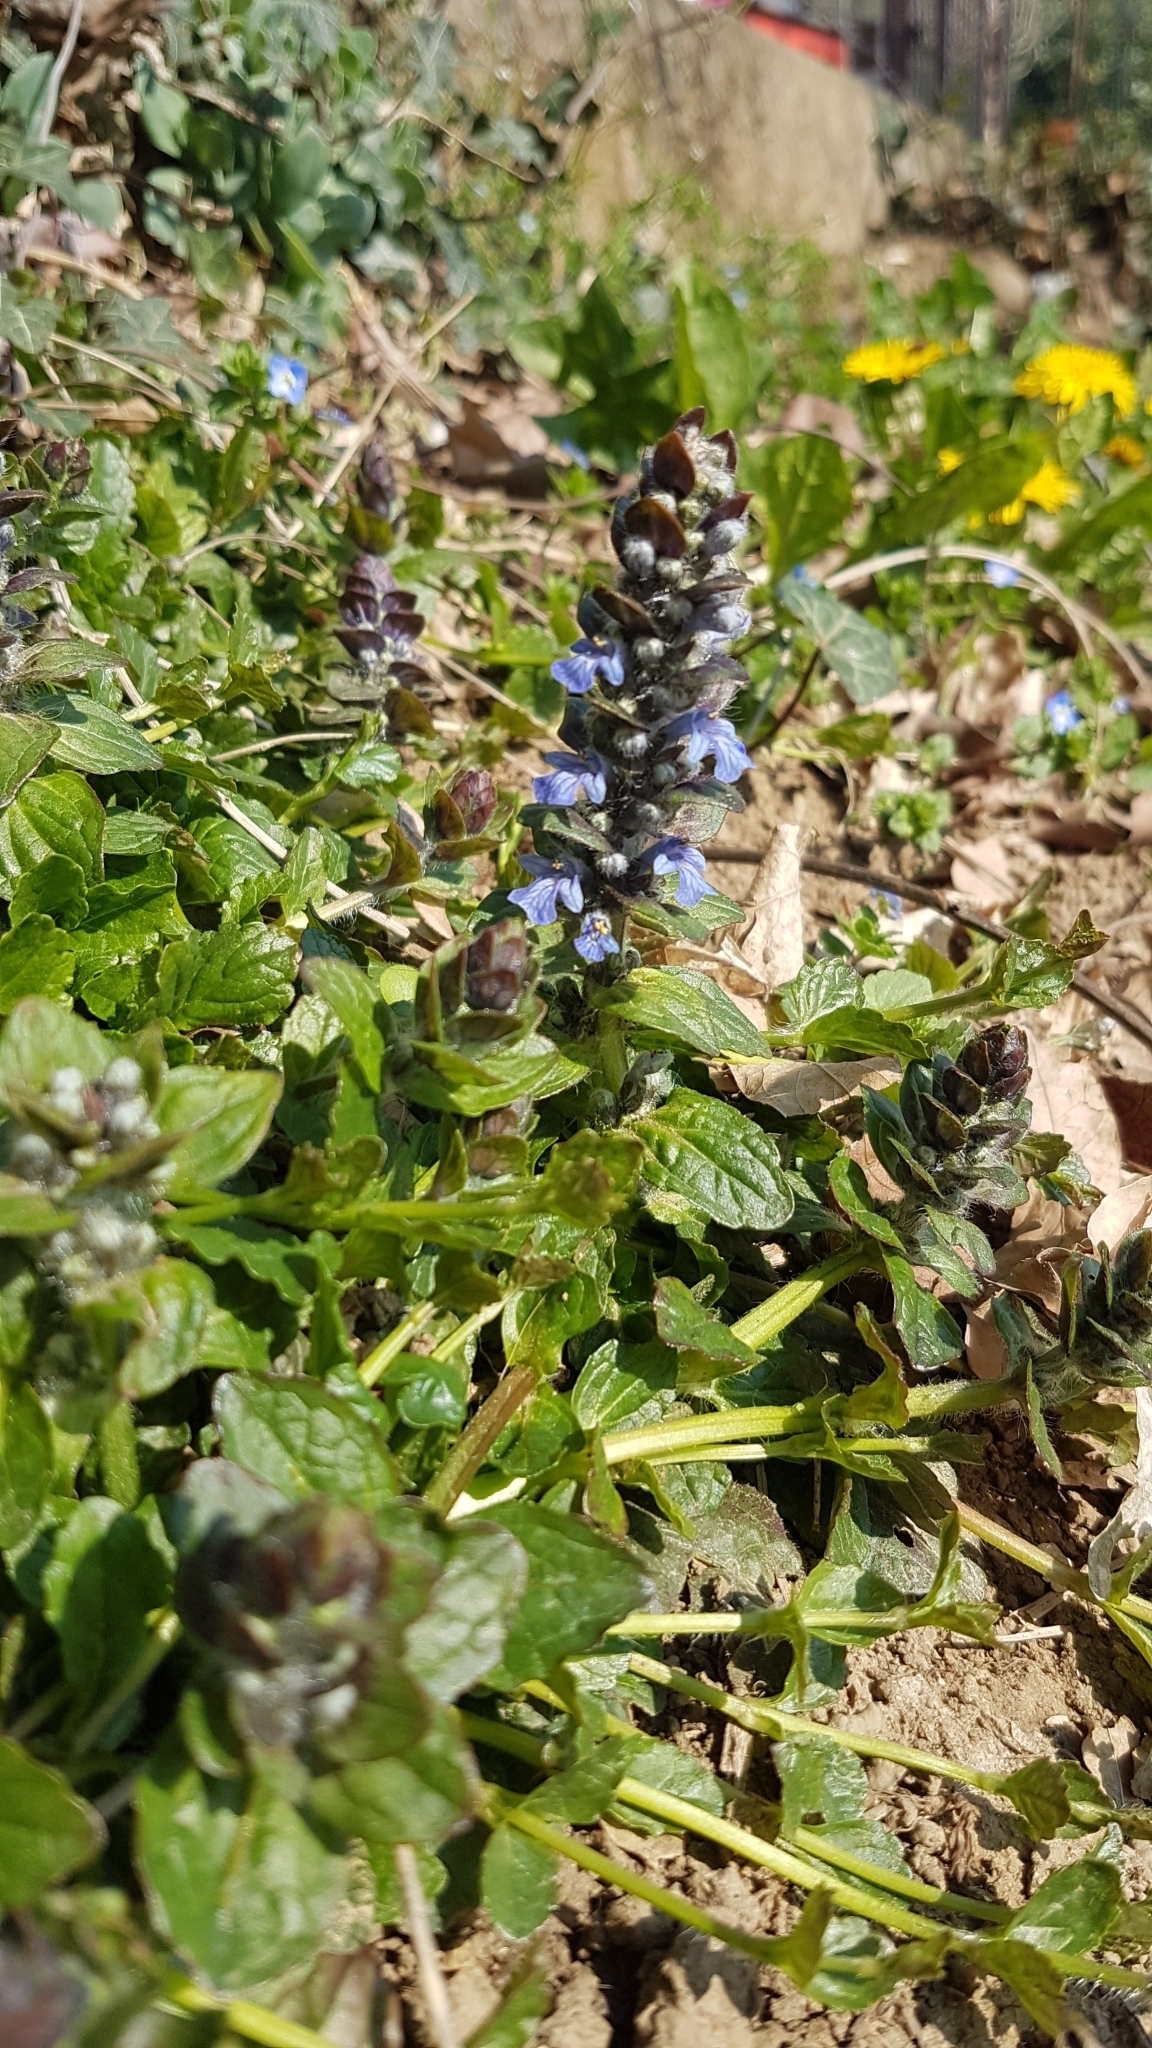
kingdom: Plantae
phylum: Tracheophyta
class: Magnoliopsida
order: Lamiales
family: Lamiaceae
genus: Ajuga
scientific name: Ajuga reptans
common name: Bugle
